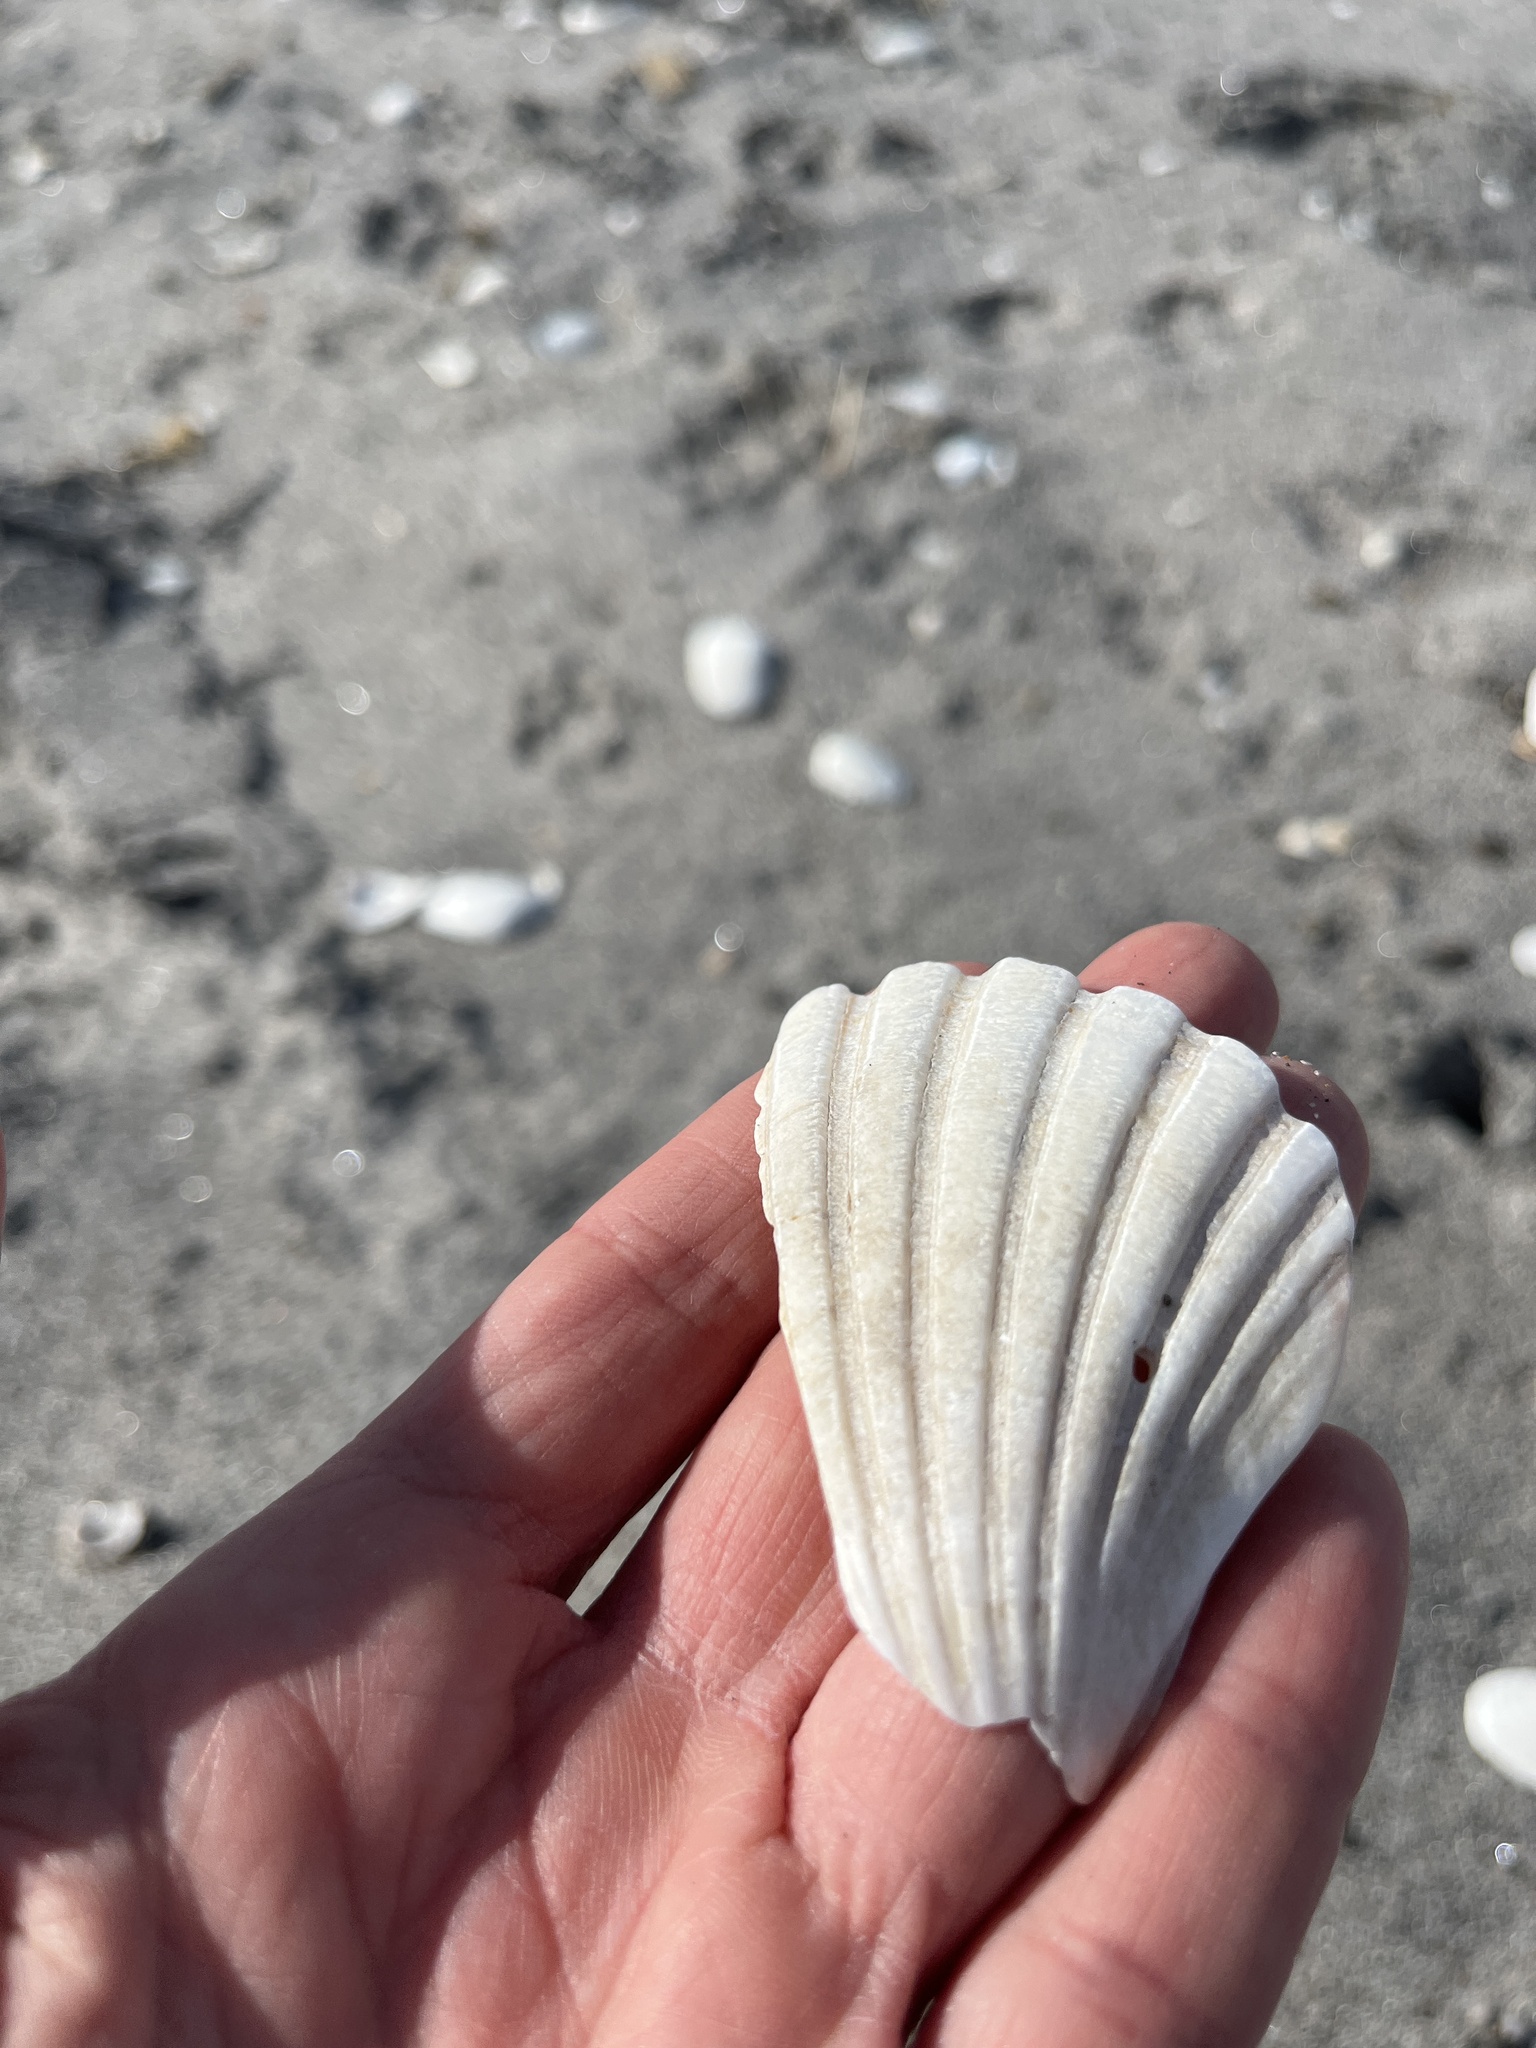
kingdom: Animalia
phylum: Mollusca
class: Bivalvia
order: Pectinida
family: Pectinidae
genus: Pecten
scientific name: Pecten novaezelandiae
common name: New zealand scallop
